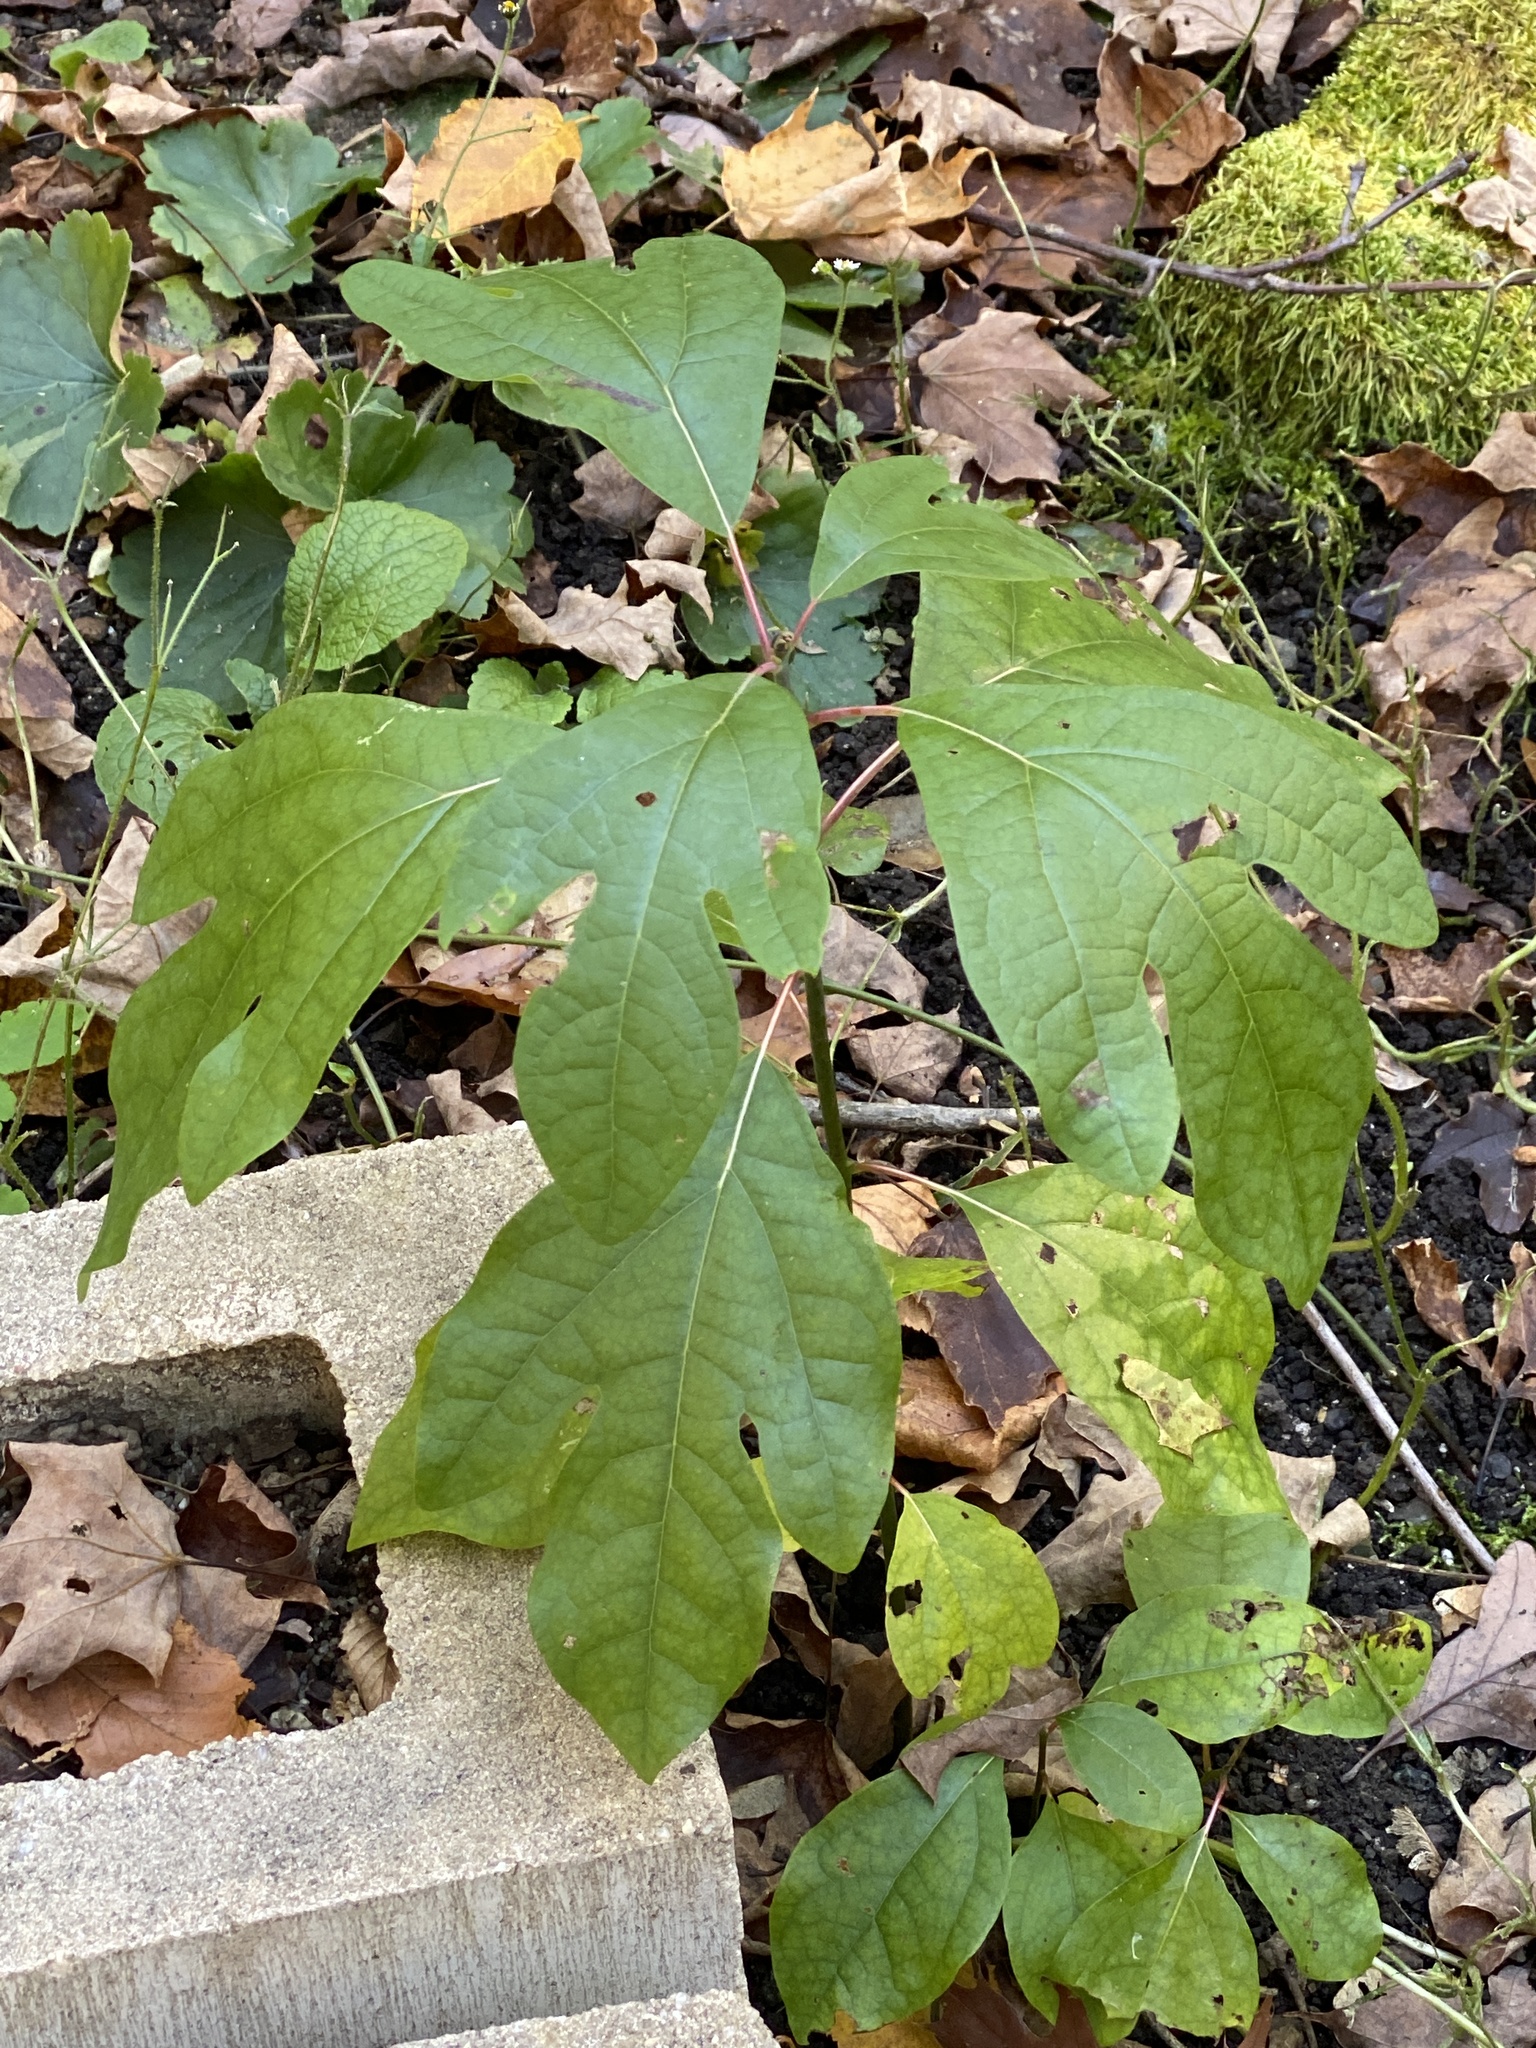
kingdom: Plantae
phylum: Tracheophyta
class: Magnoliopsida
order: Laurales
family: Lauraceae
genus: Sassafras
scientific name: Sassafras albidum
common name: Sassafras
